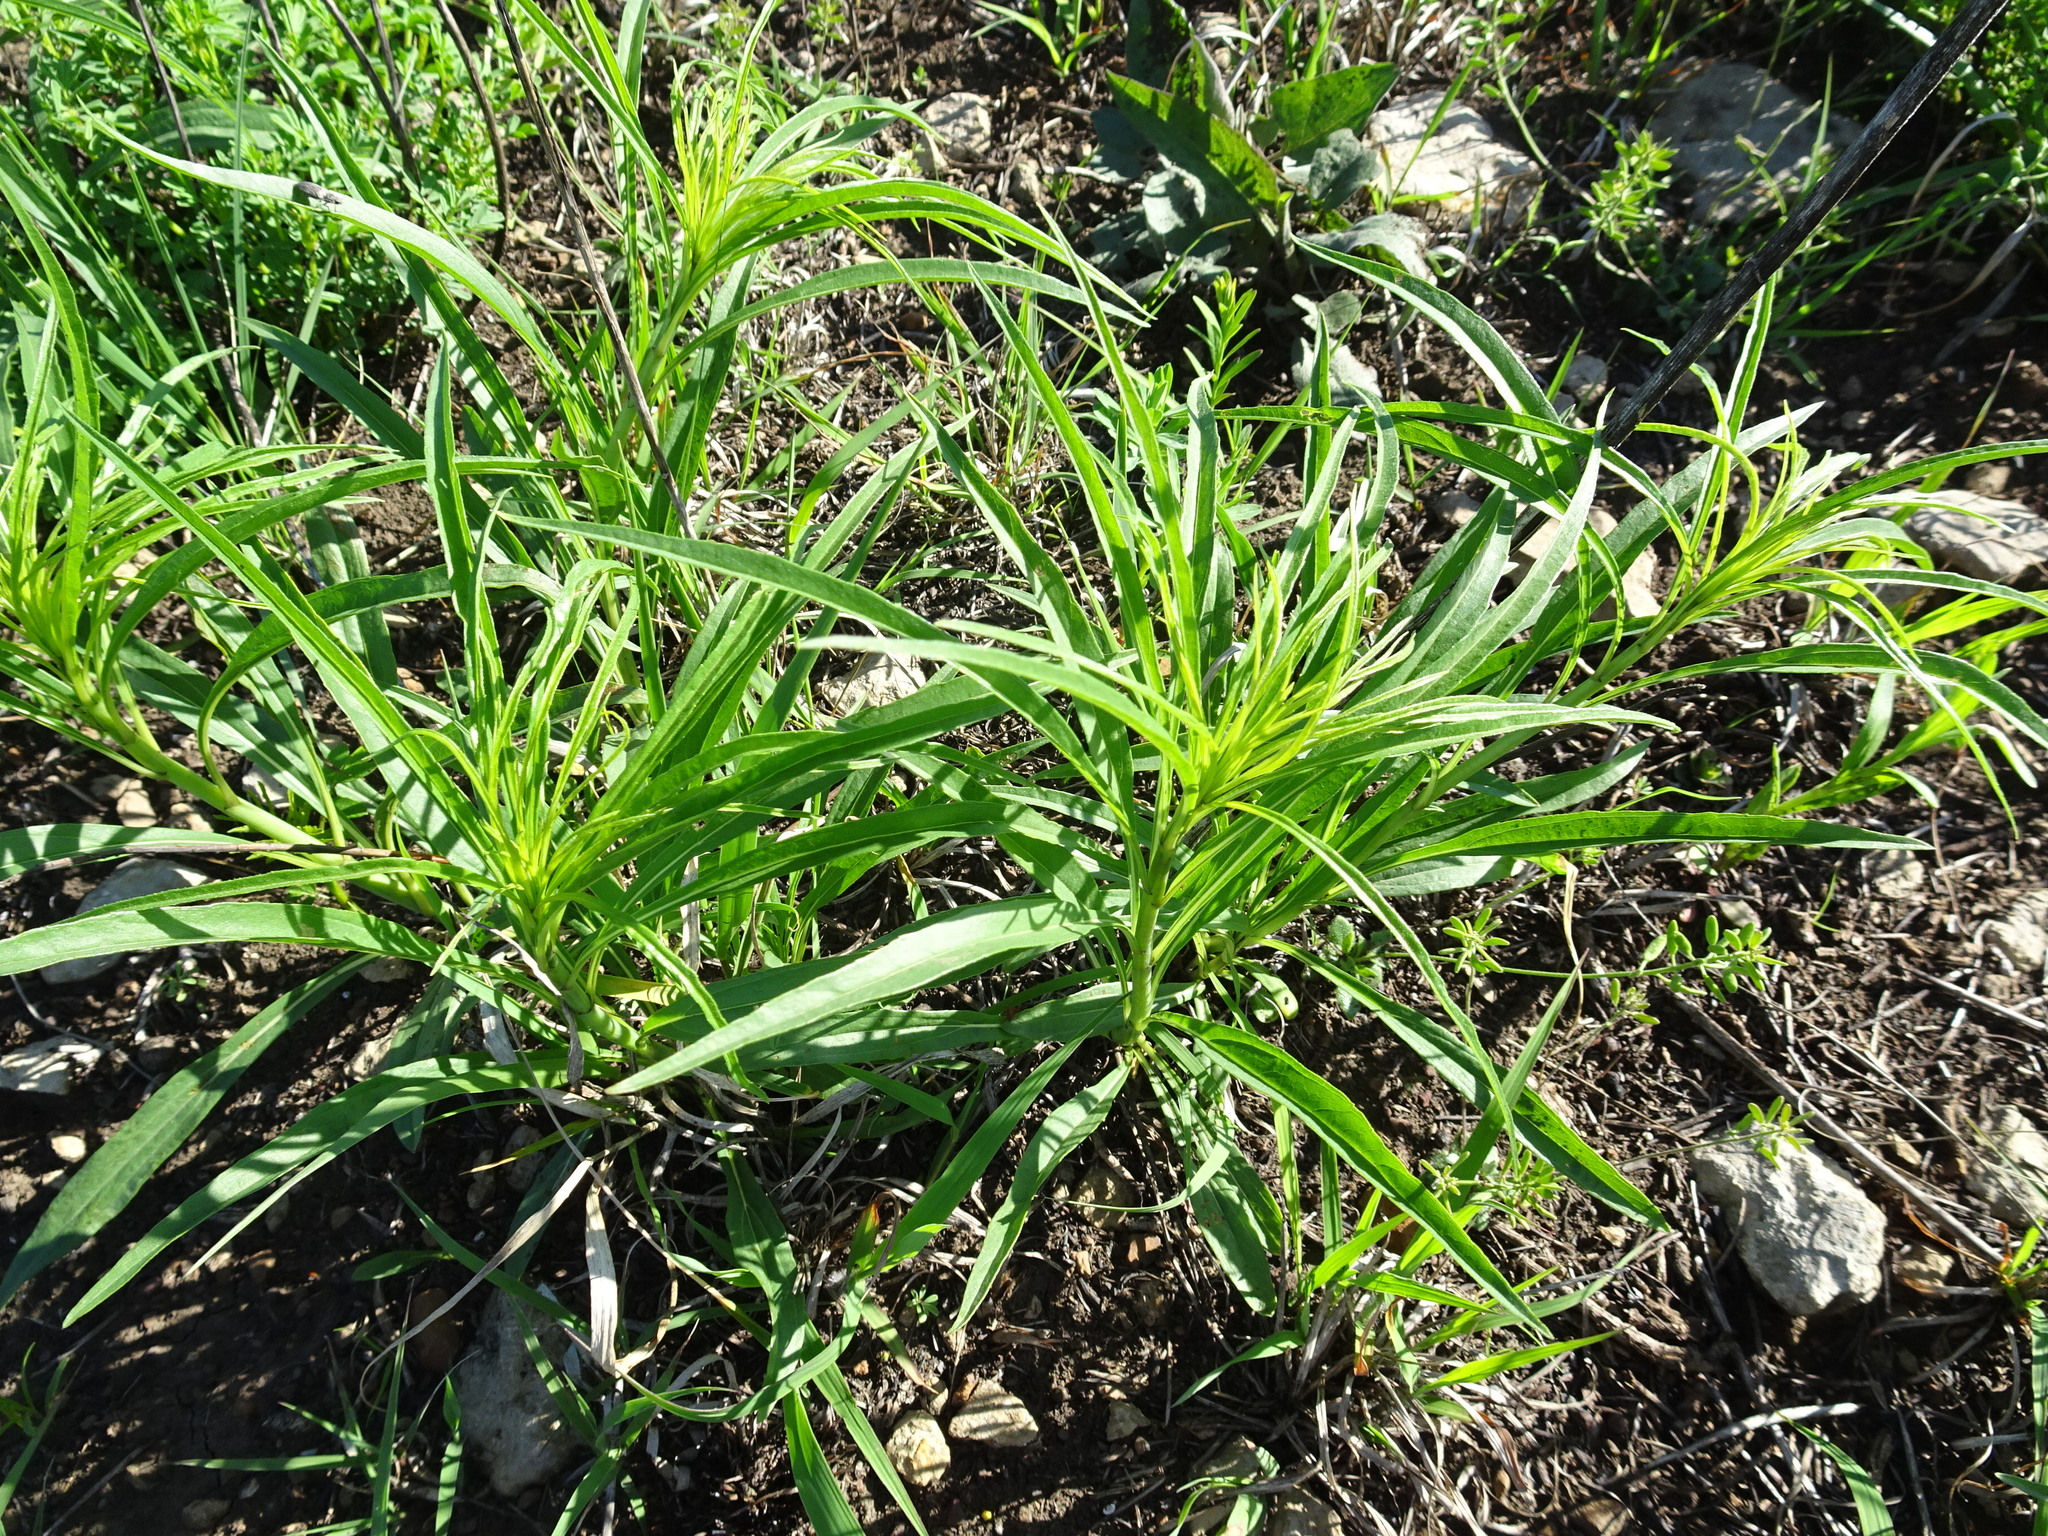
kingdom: Plantae
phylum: Tracheophyta
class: Magnoliopsida
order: Asterales
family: Asteraceae
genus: Helianthus
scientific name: Helianthus salicifolius
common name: Willowleaf sunflower
